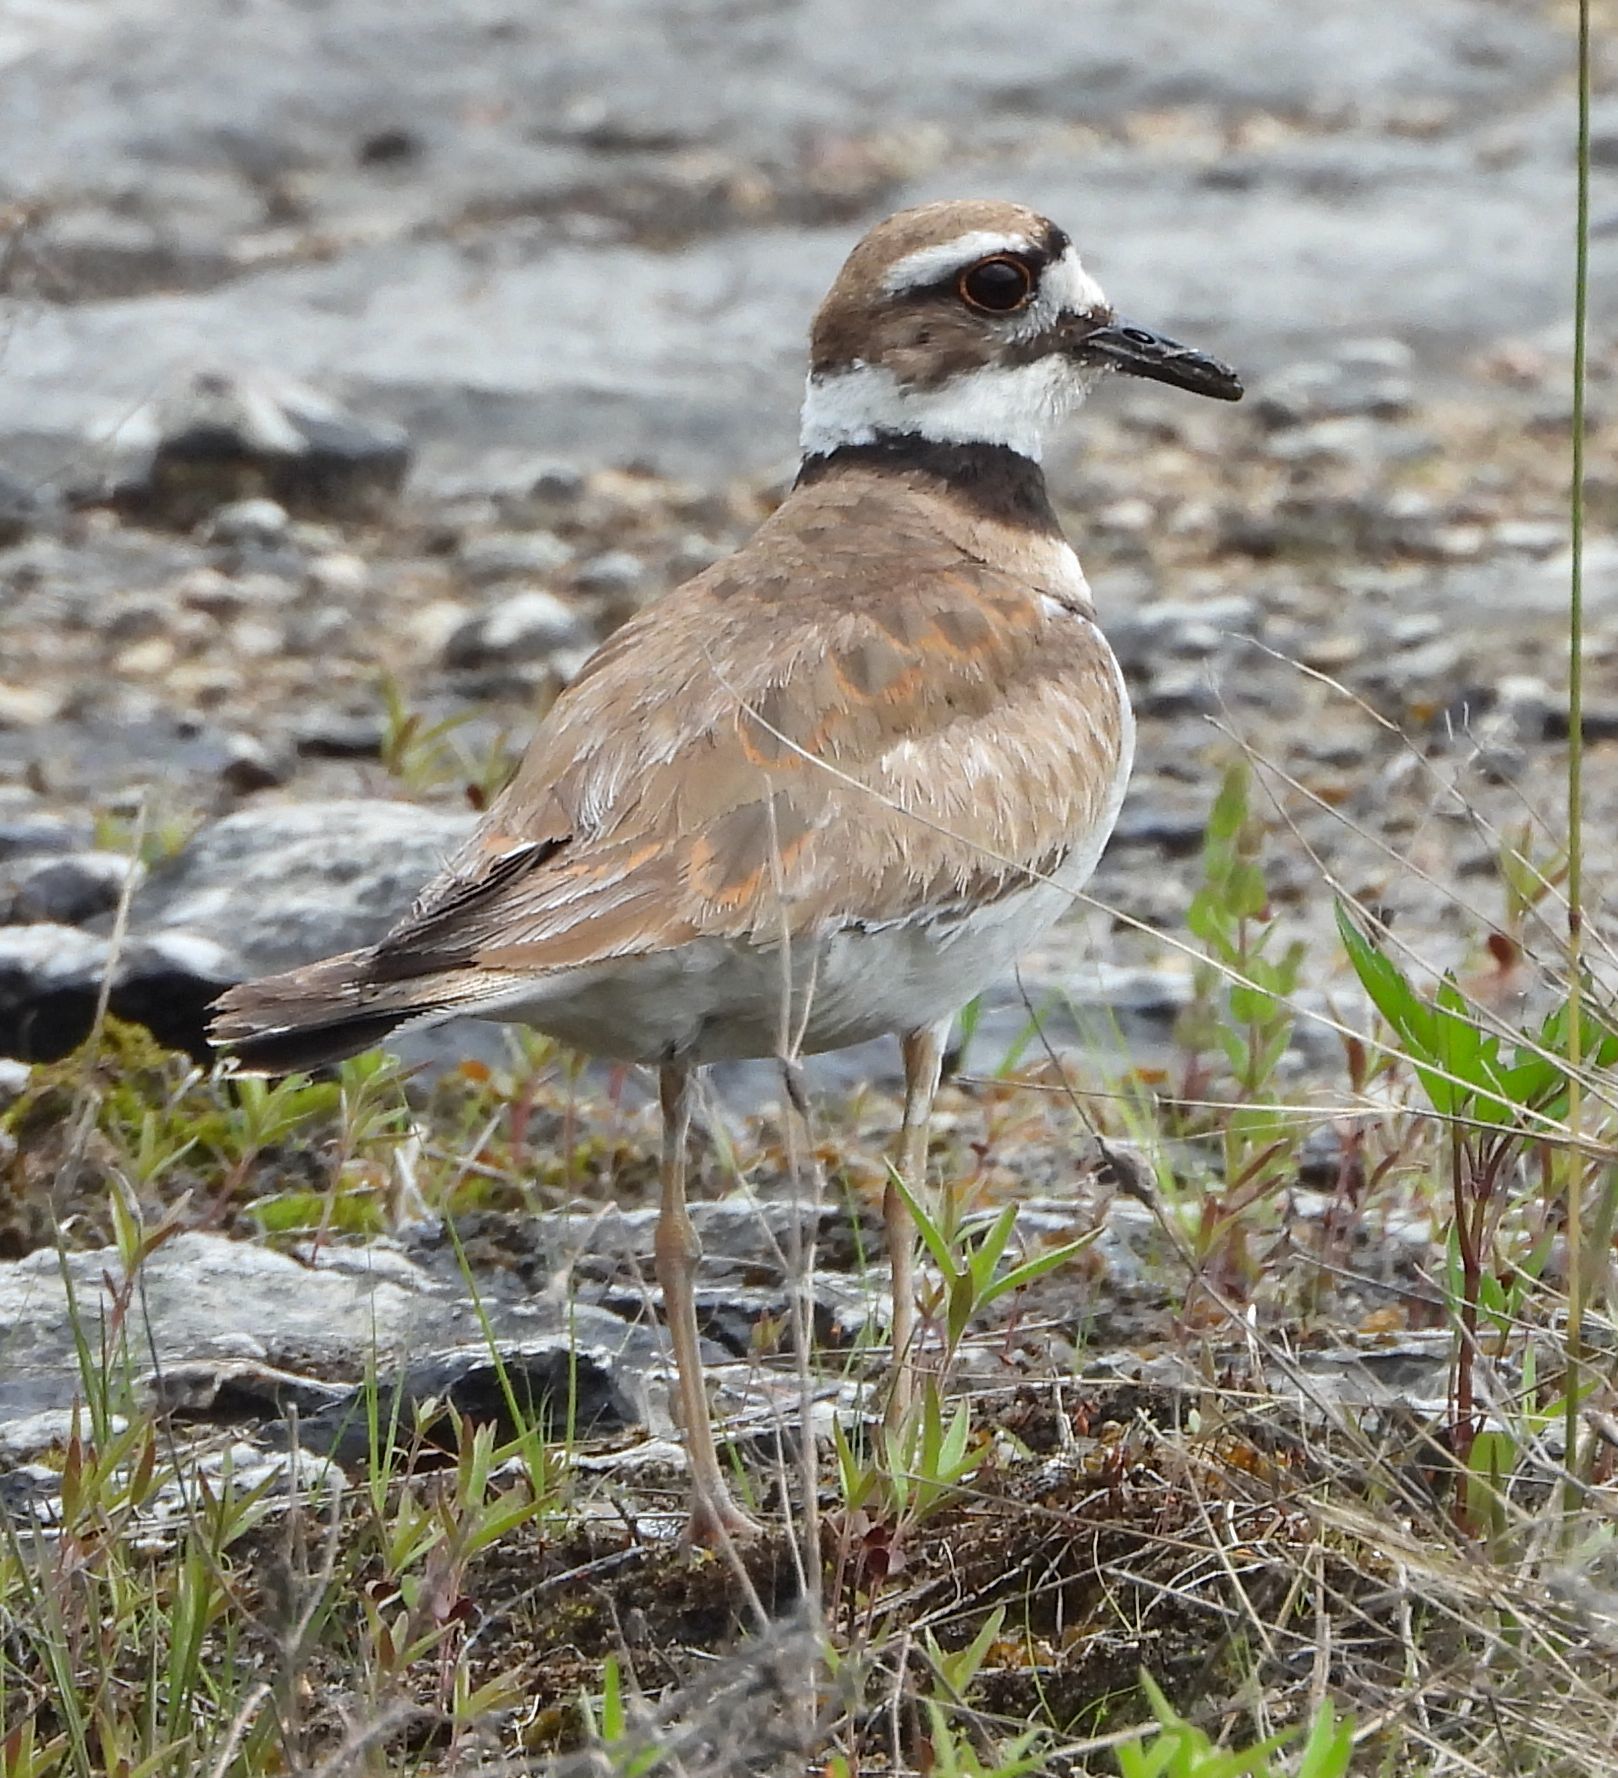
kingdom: Animalia
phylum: Chordata
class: Aves
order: Charadriiformes
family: Charadriidae
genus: Charadrius
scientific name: Charadrius vociferus
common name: Killdeer
